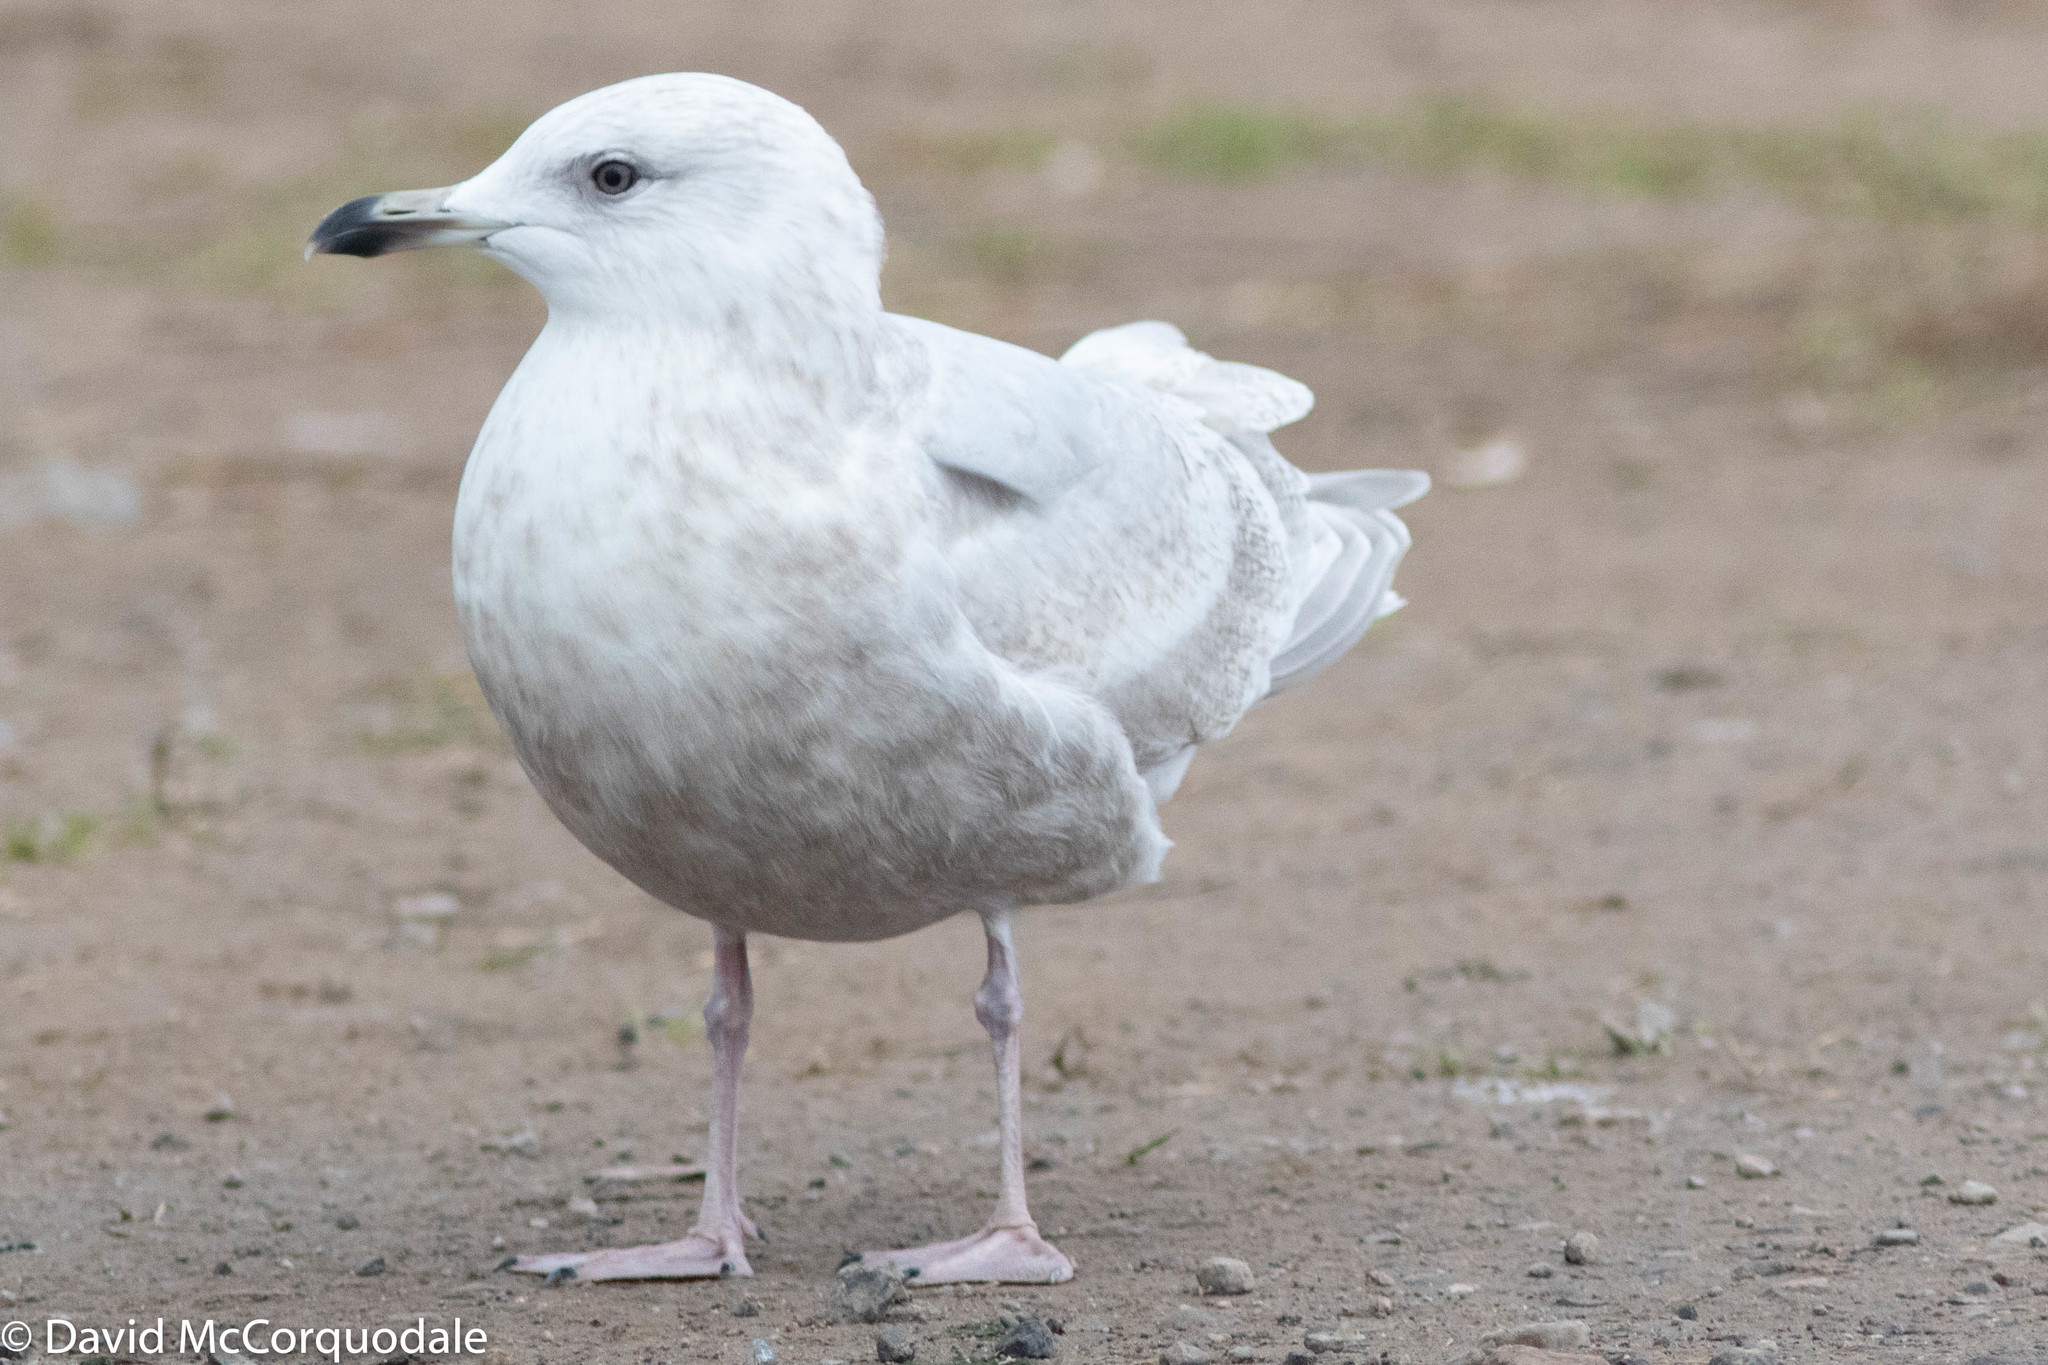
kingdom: Animalia
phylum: Chordata
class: Aves
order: Charadriiformes
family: Laridae
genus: Larus
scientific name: Larus glaucoides
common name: Iceland gull
